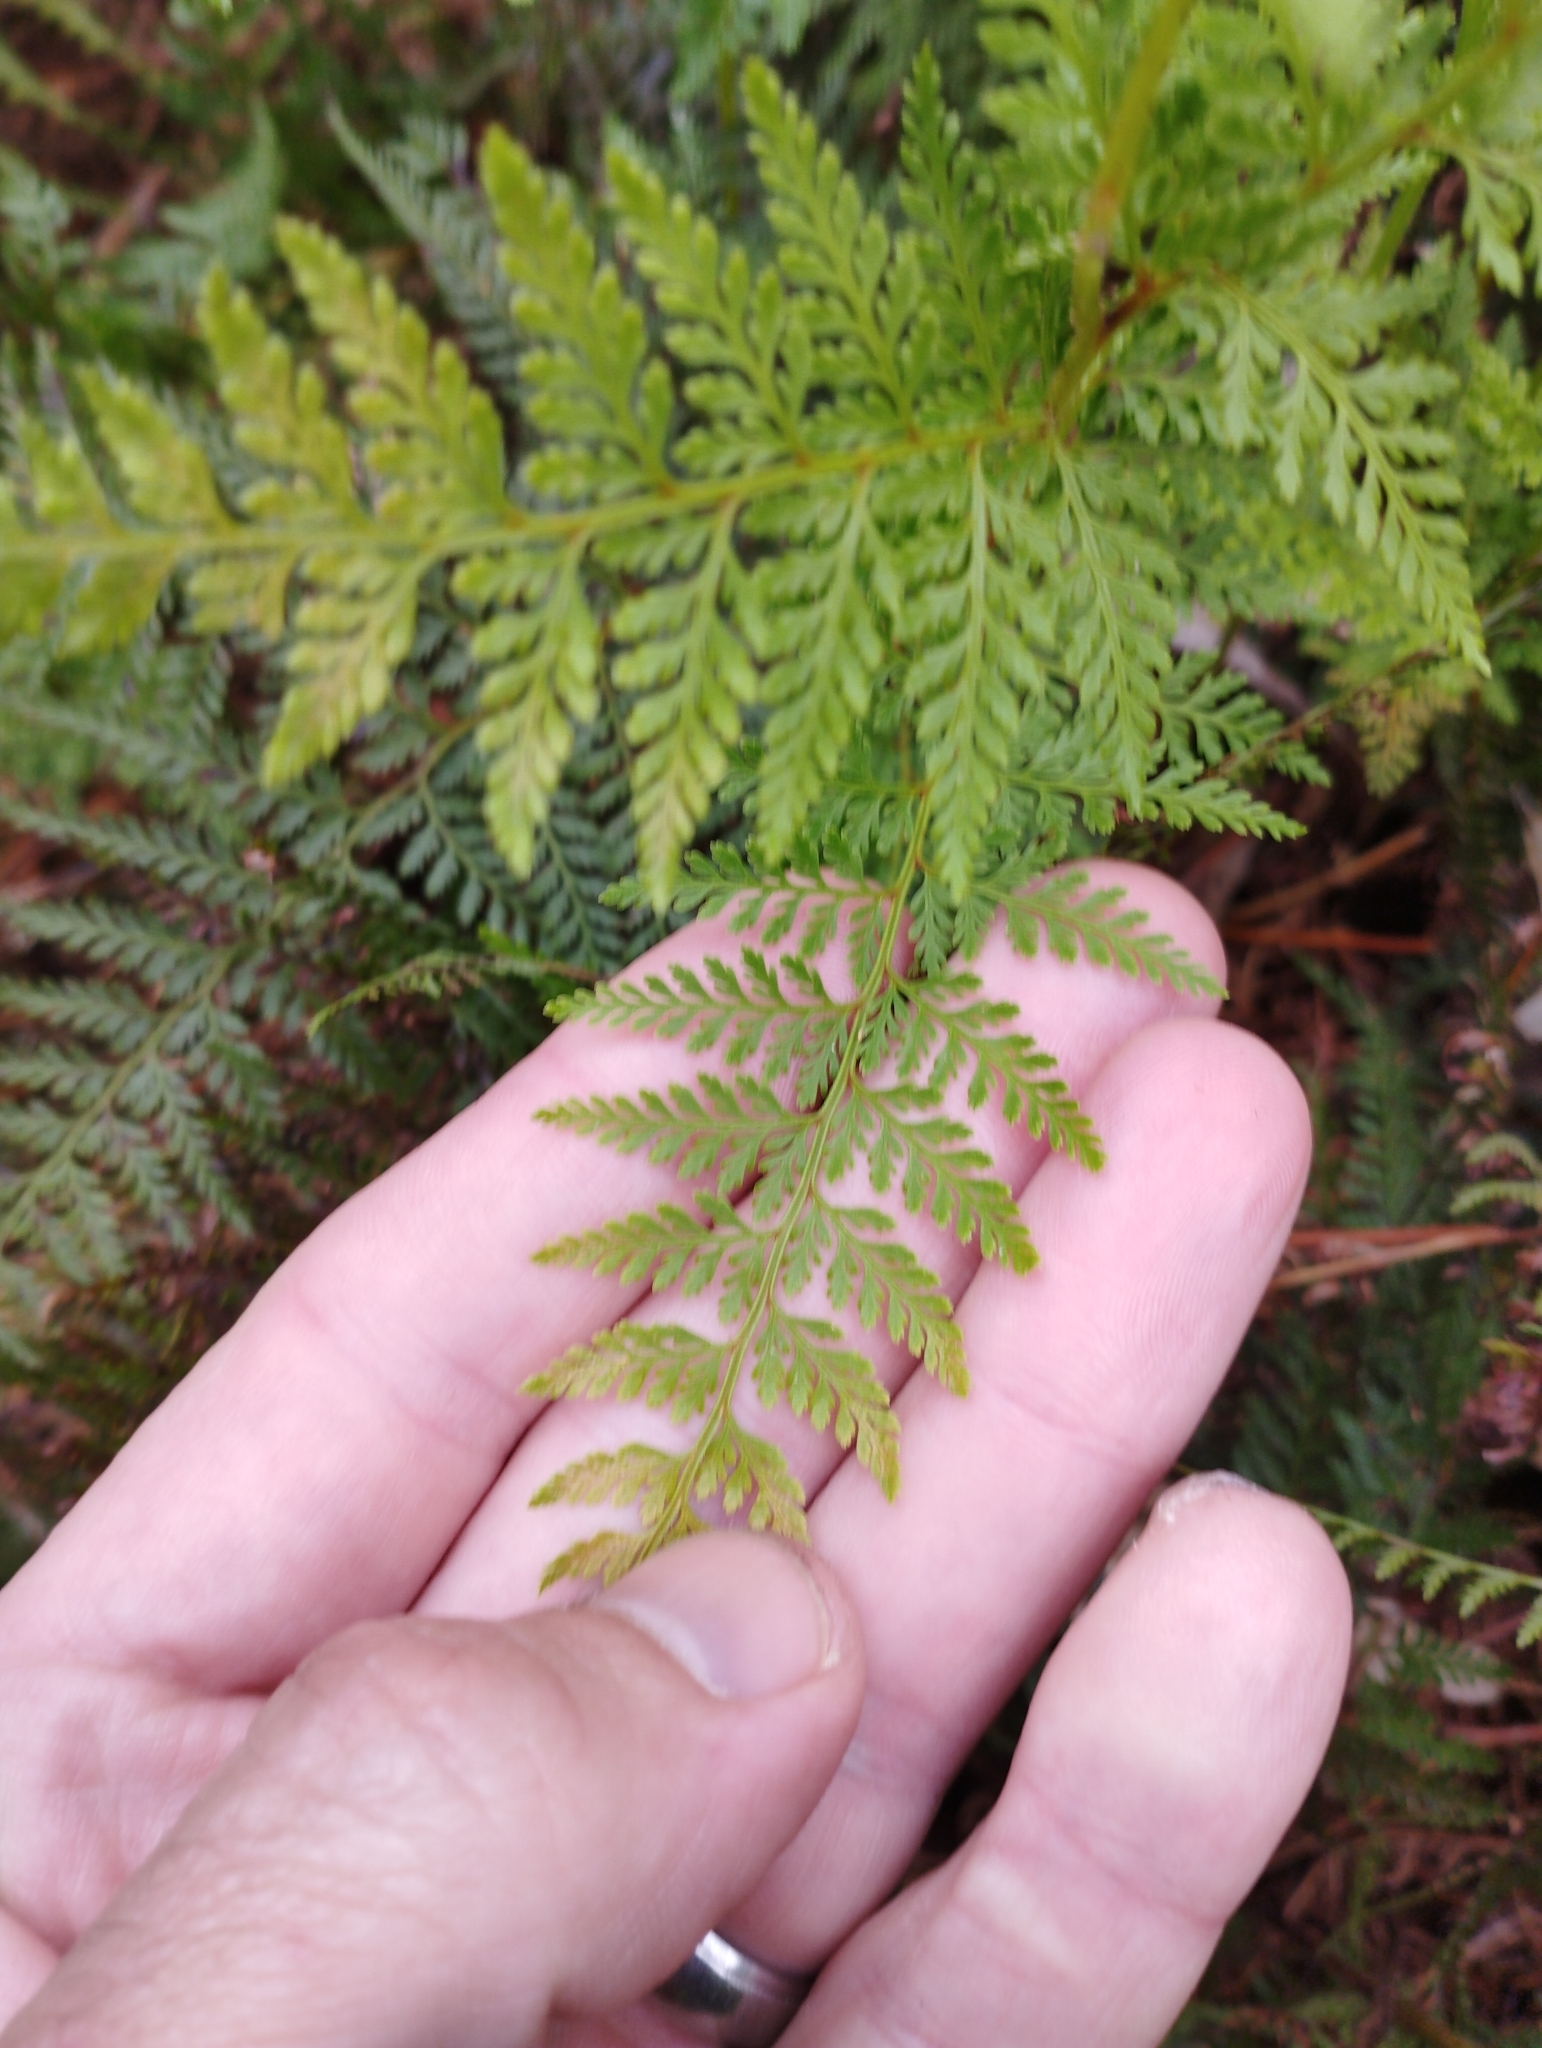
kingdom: Plantae
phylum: Tracheophyta
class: Polypodiopsida
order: Polypodiales
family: Dennstaedtiaceae
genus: Paesia
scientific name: Paesia scaberula
